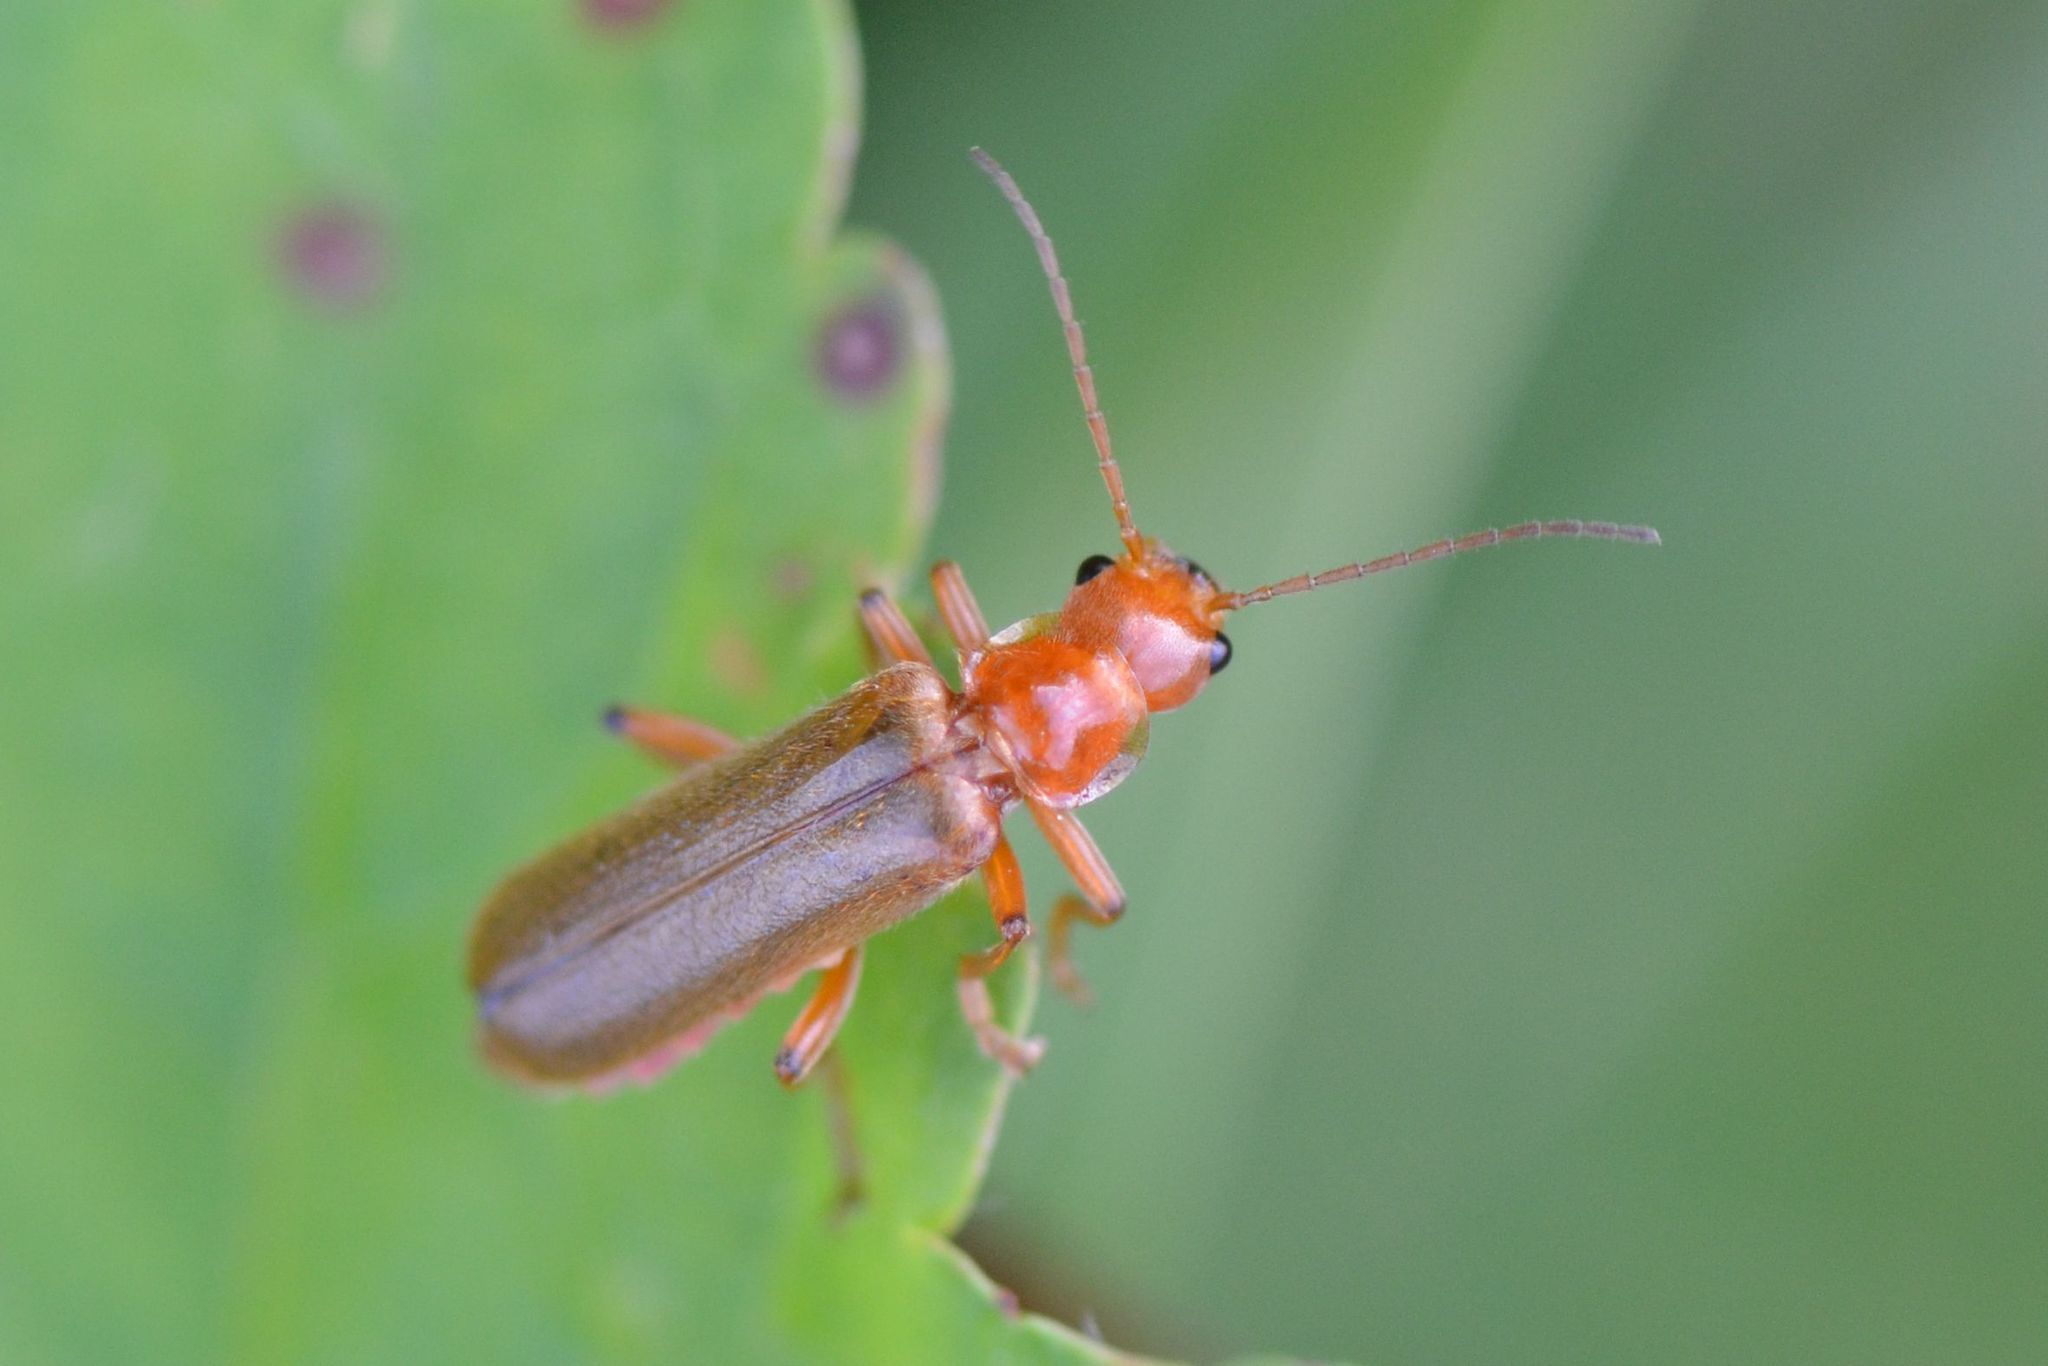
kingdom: Animalia
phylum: Arthropoda
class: Insecta
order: Coleoptera
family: Cantharidae
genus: Cantharis
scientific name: Cantharis cryptica
